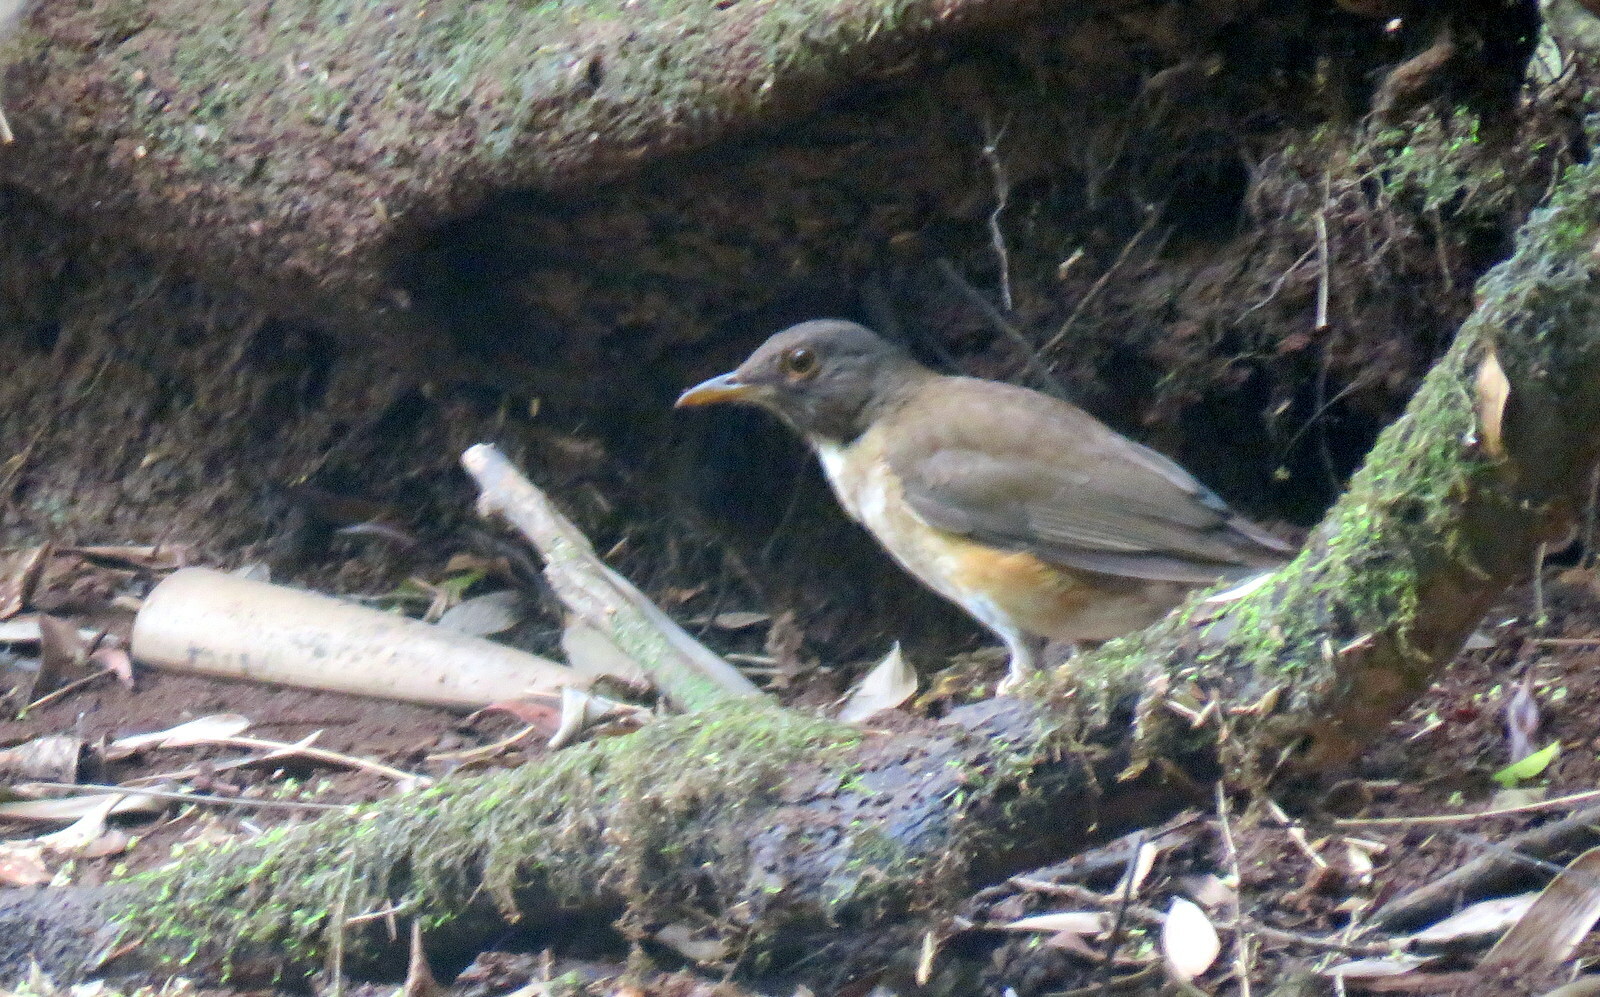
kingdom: Animalia
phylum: Chordata
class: Aves
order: Passeriformes
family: Turdidae
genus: Turdus
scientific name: Turdus albicollis
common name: White-necked thrush
